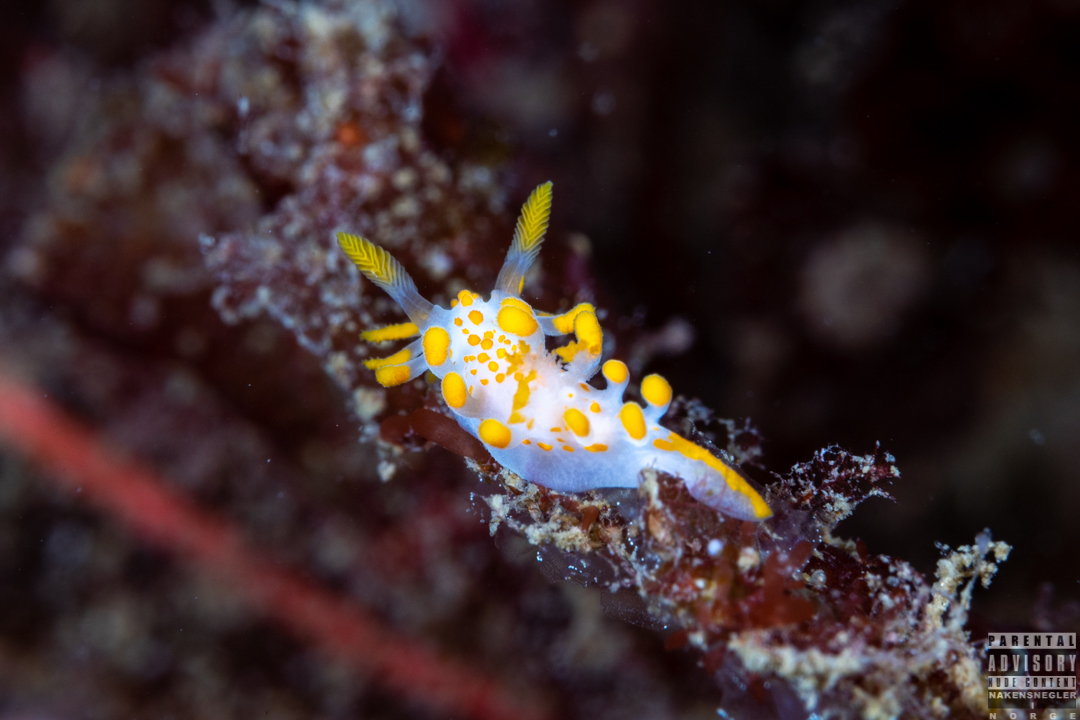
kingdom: Animalia
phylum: Mollusca
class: Gastropoda
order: Nudibranchia
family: Polyceridae
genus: Limacia
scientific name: Limacia clavigera
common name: Orange-clubbed sea slug
